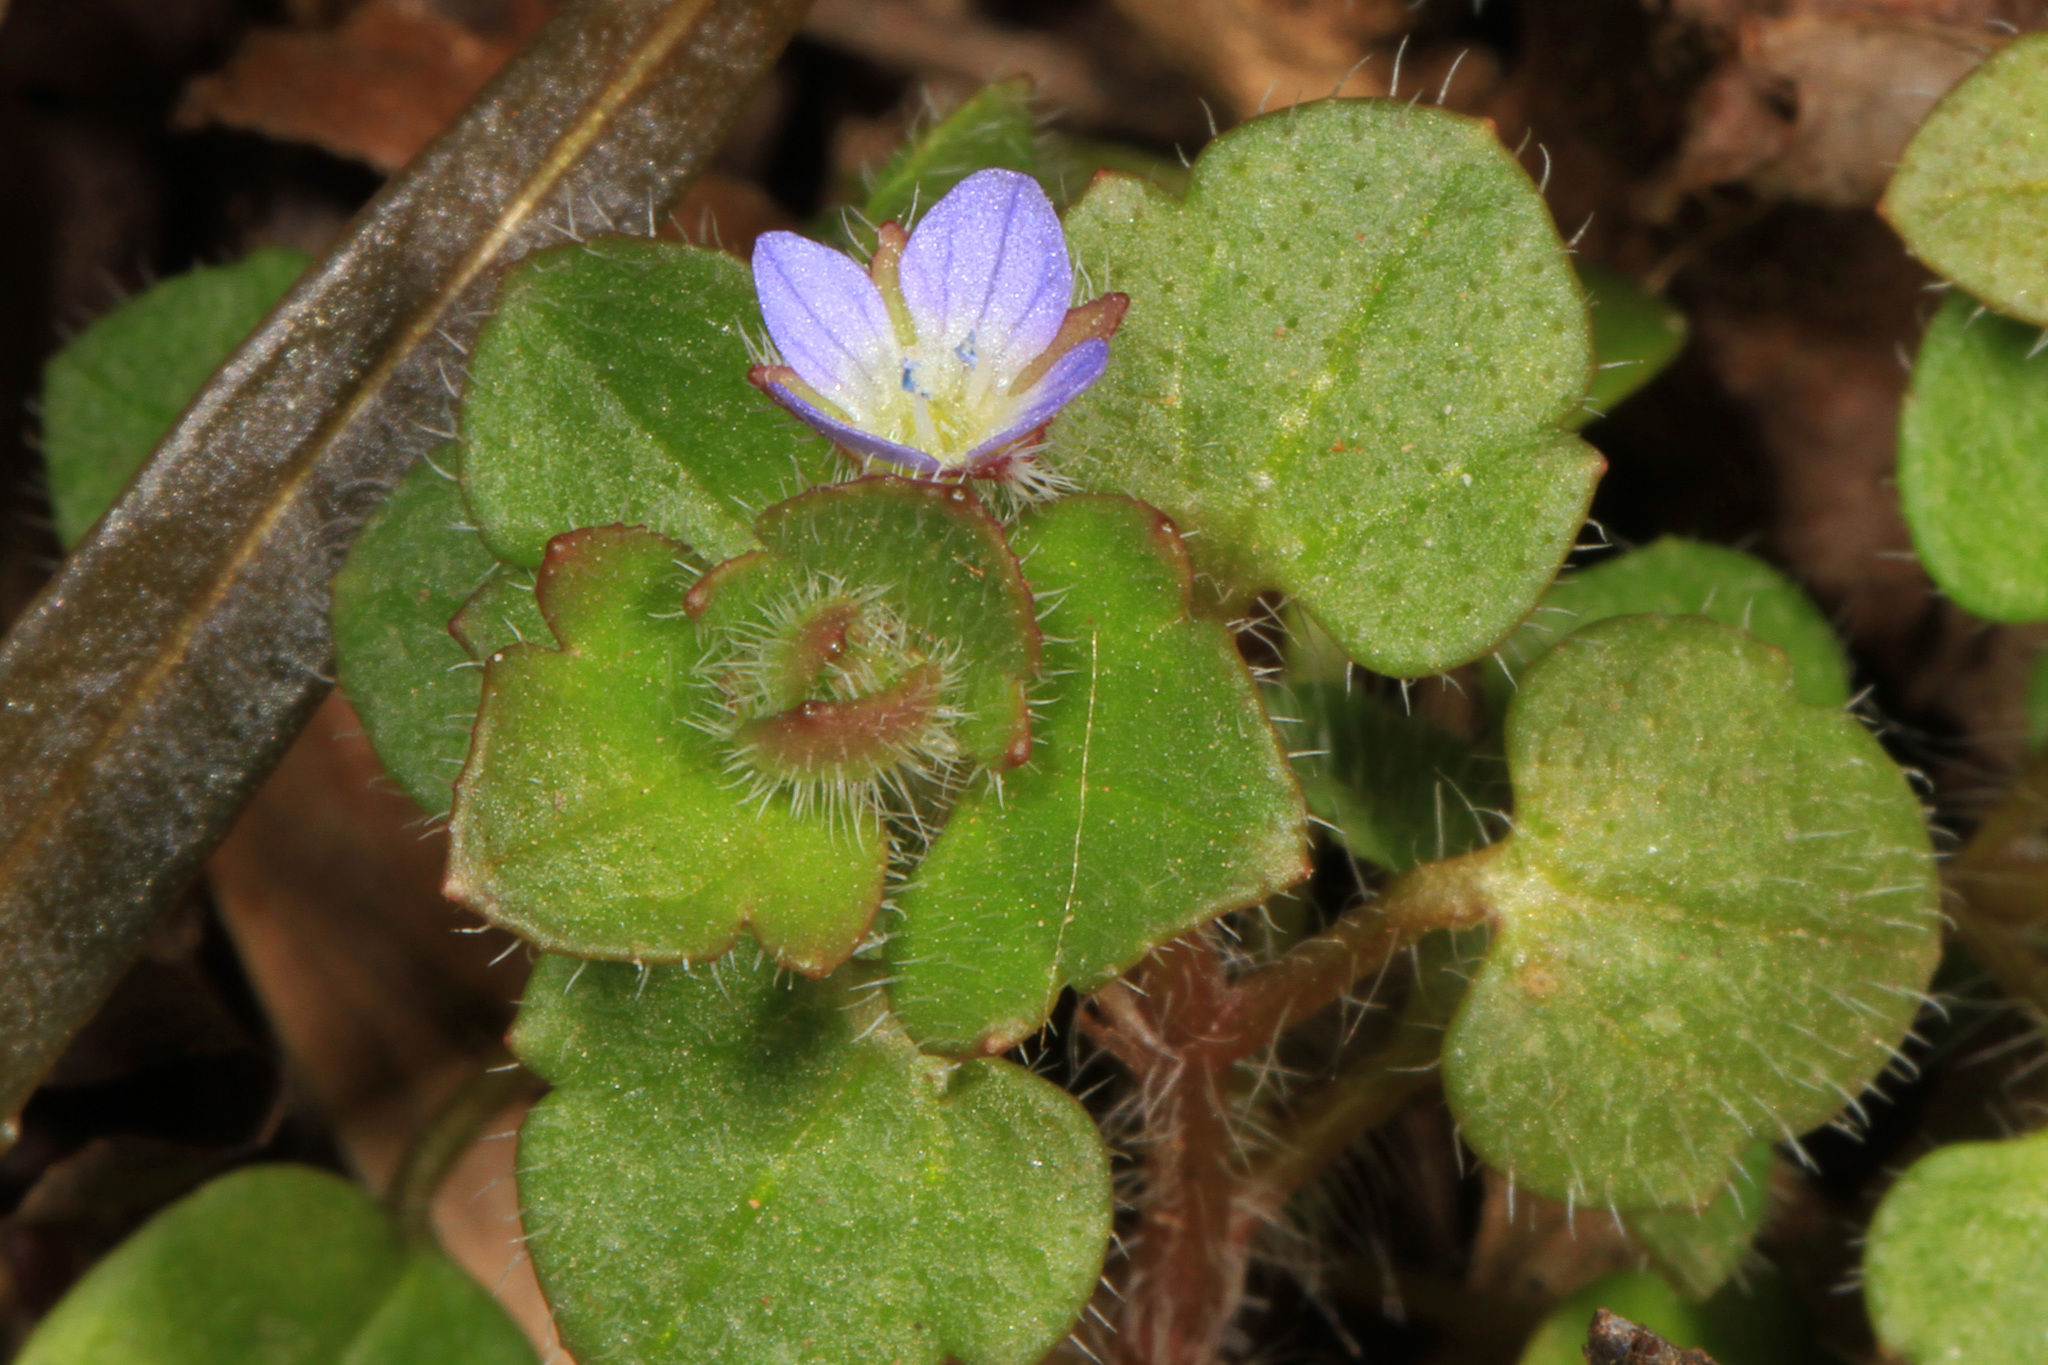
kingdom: Plantae
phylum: Tracheophyta
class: Magnoliopsida
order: Lamiales
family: Plantaginaceae
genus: Veronica
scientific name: Veronica hederifolia
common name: Ivy-leaved speedwell
